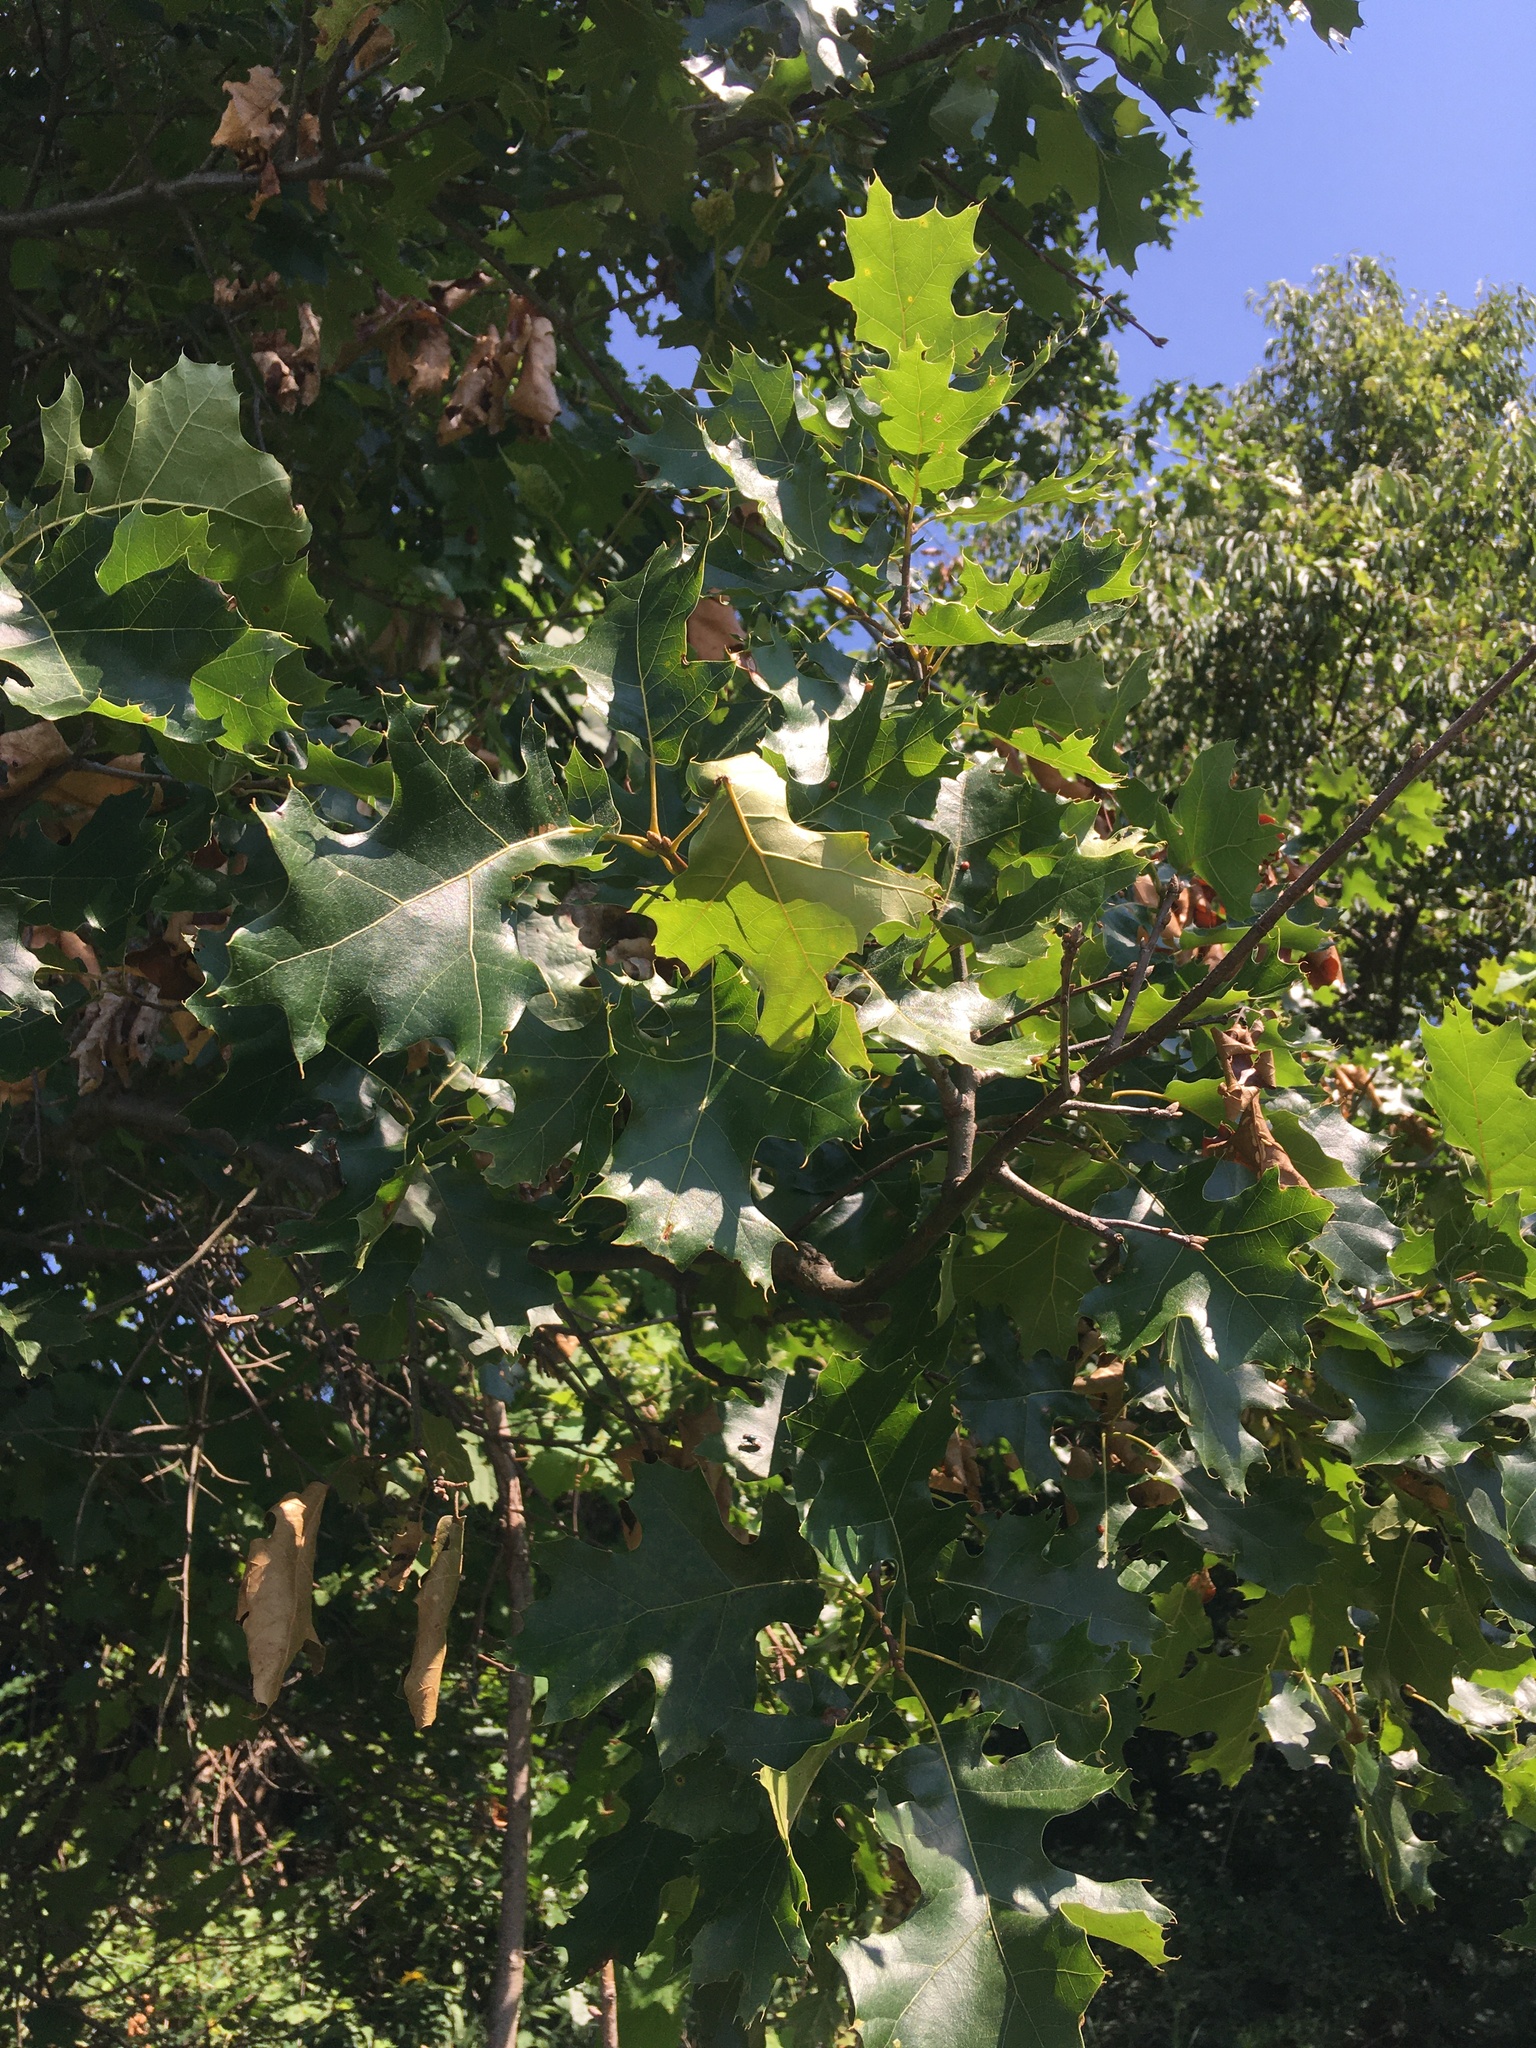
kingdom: Plantae
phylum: Tracheophyta
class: Magnoliopsida
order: Fagales
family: Fagaceae
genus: Quercus
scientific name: Quercus velutina
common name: Black oak
